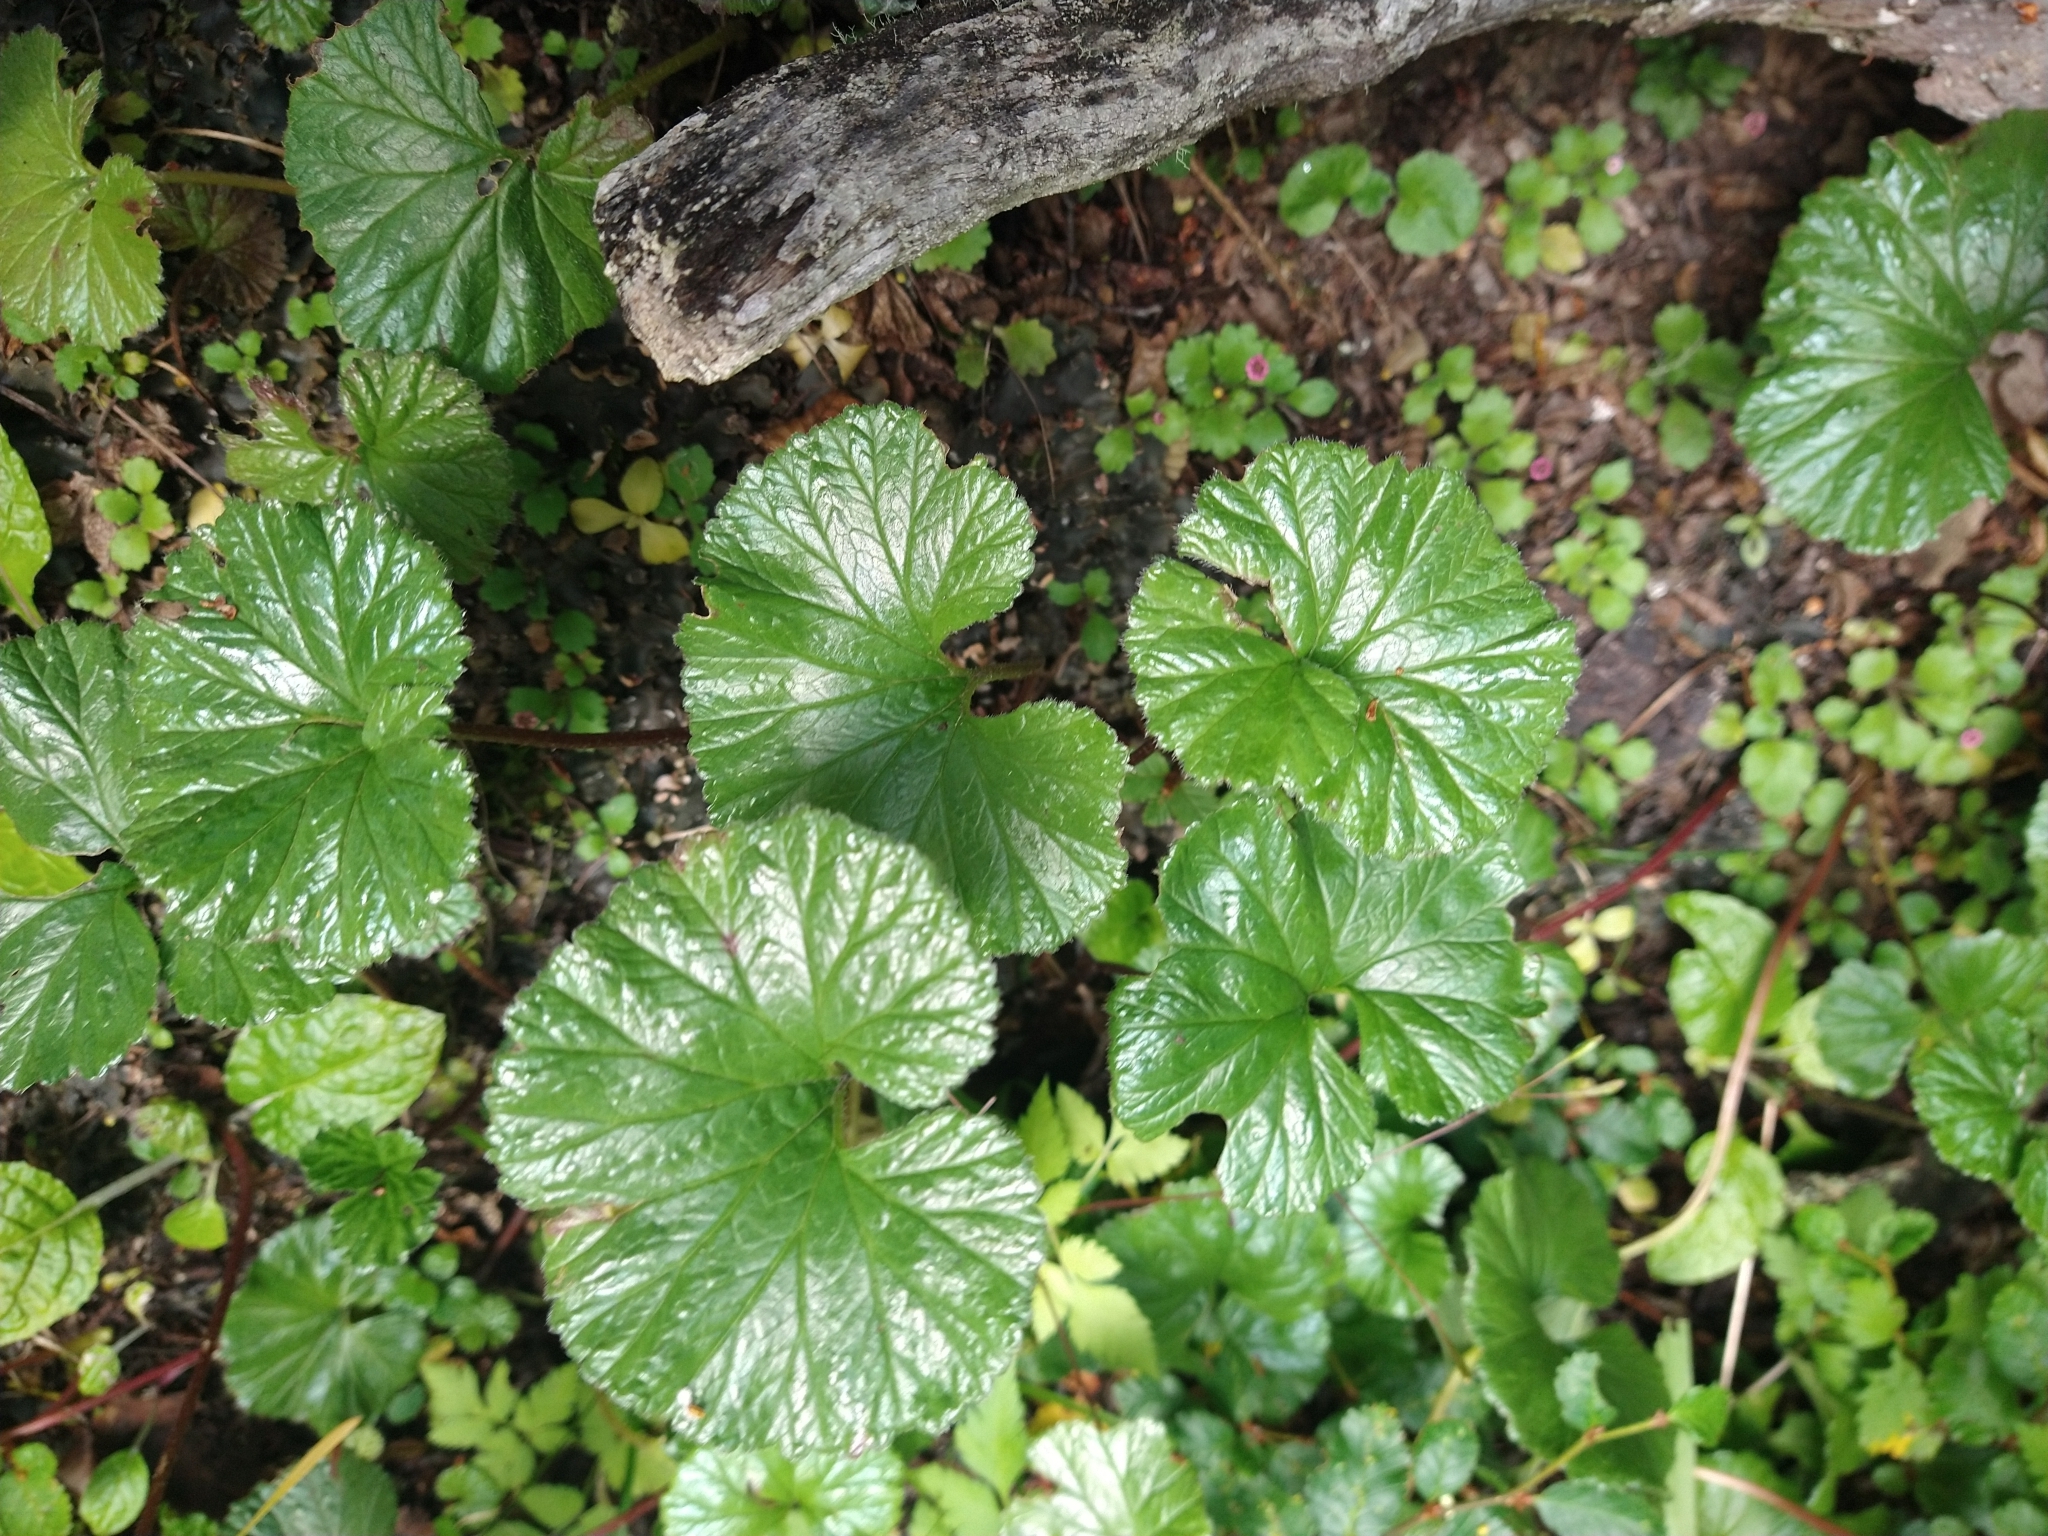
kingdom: Plantae
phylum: Tracheophyta
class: Magnoliopsida
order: Gunnerales
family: Gunneraceae
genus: Gunnera
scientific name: Gunnera magellanica
